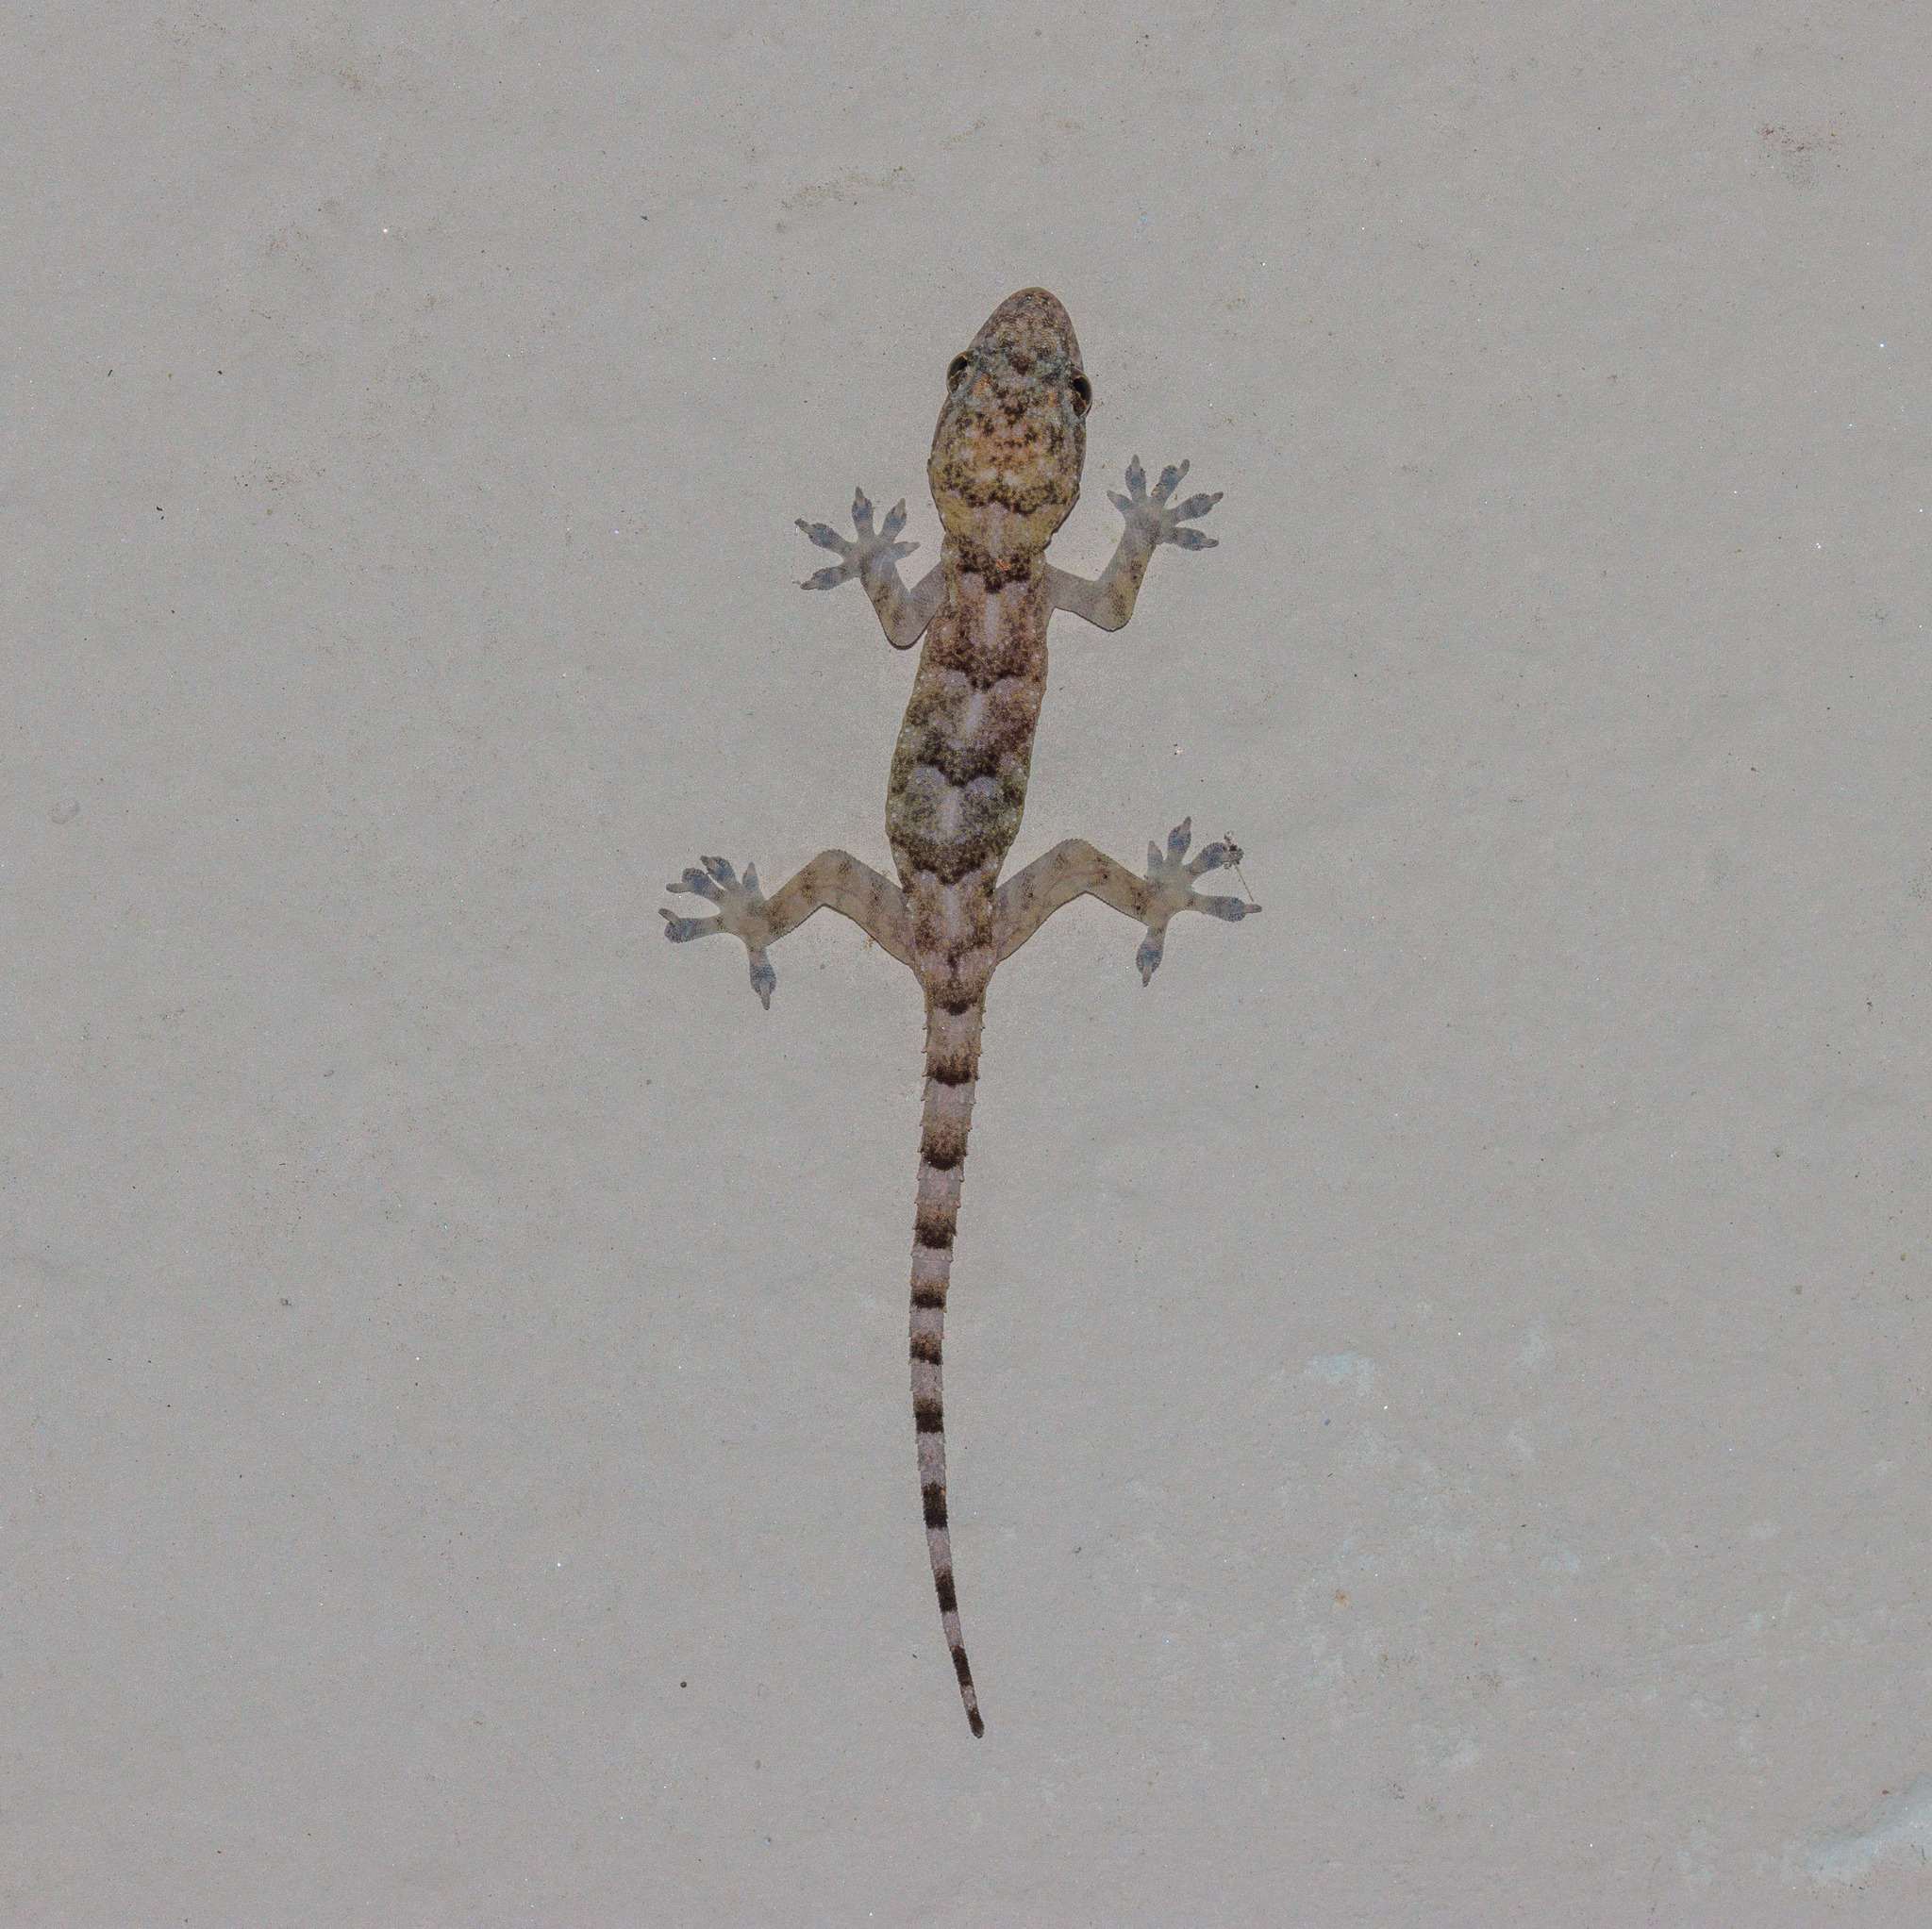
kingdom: Animalia
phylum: Chordata
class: Squamata
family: Gekkonidae
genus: Hemidactylus
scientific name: Hemidactylus mabouia
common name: House gecko
